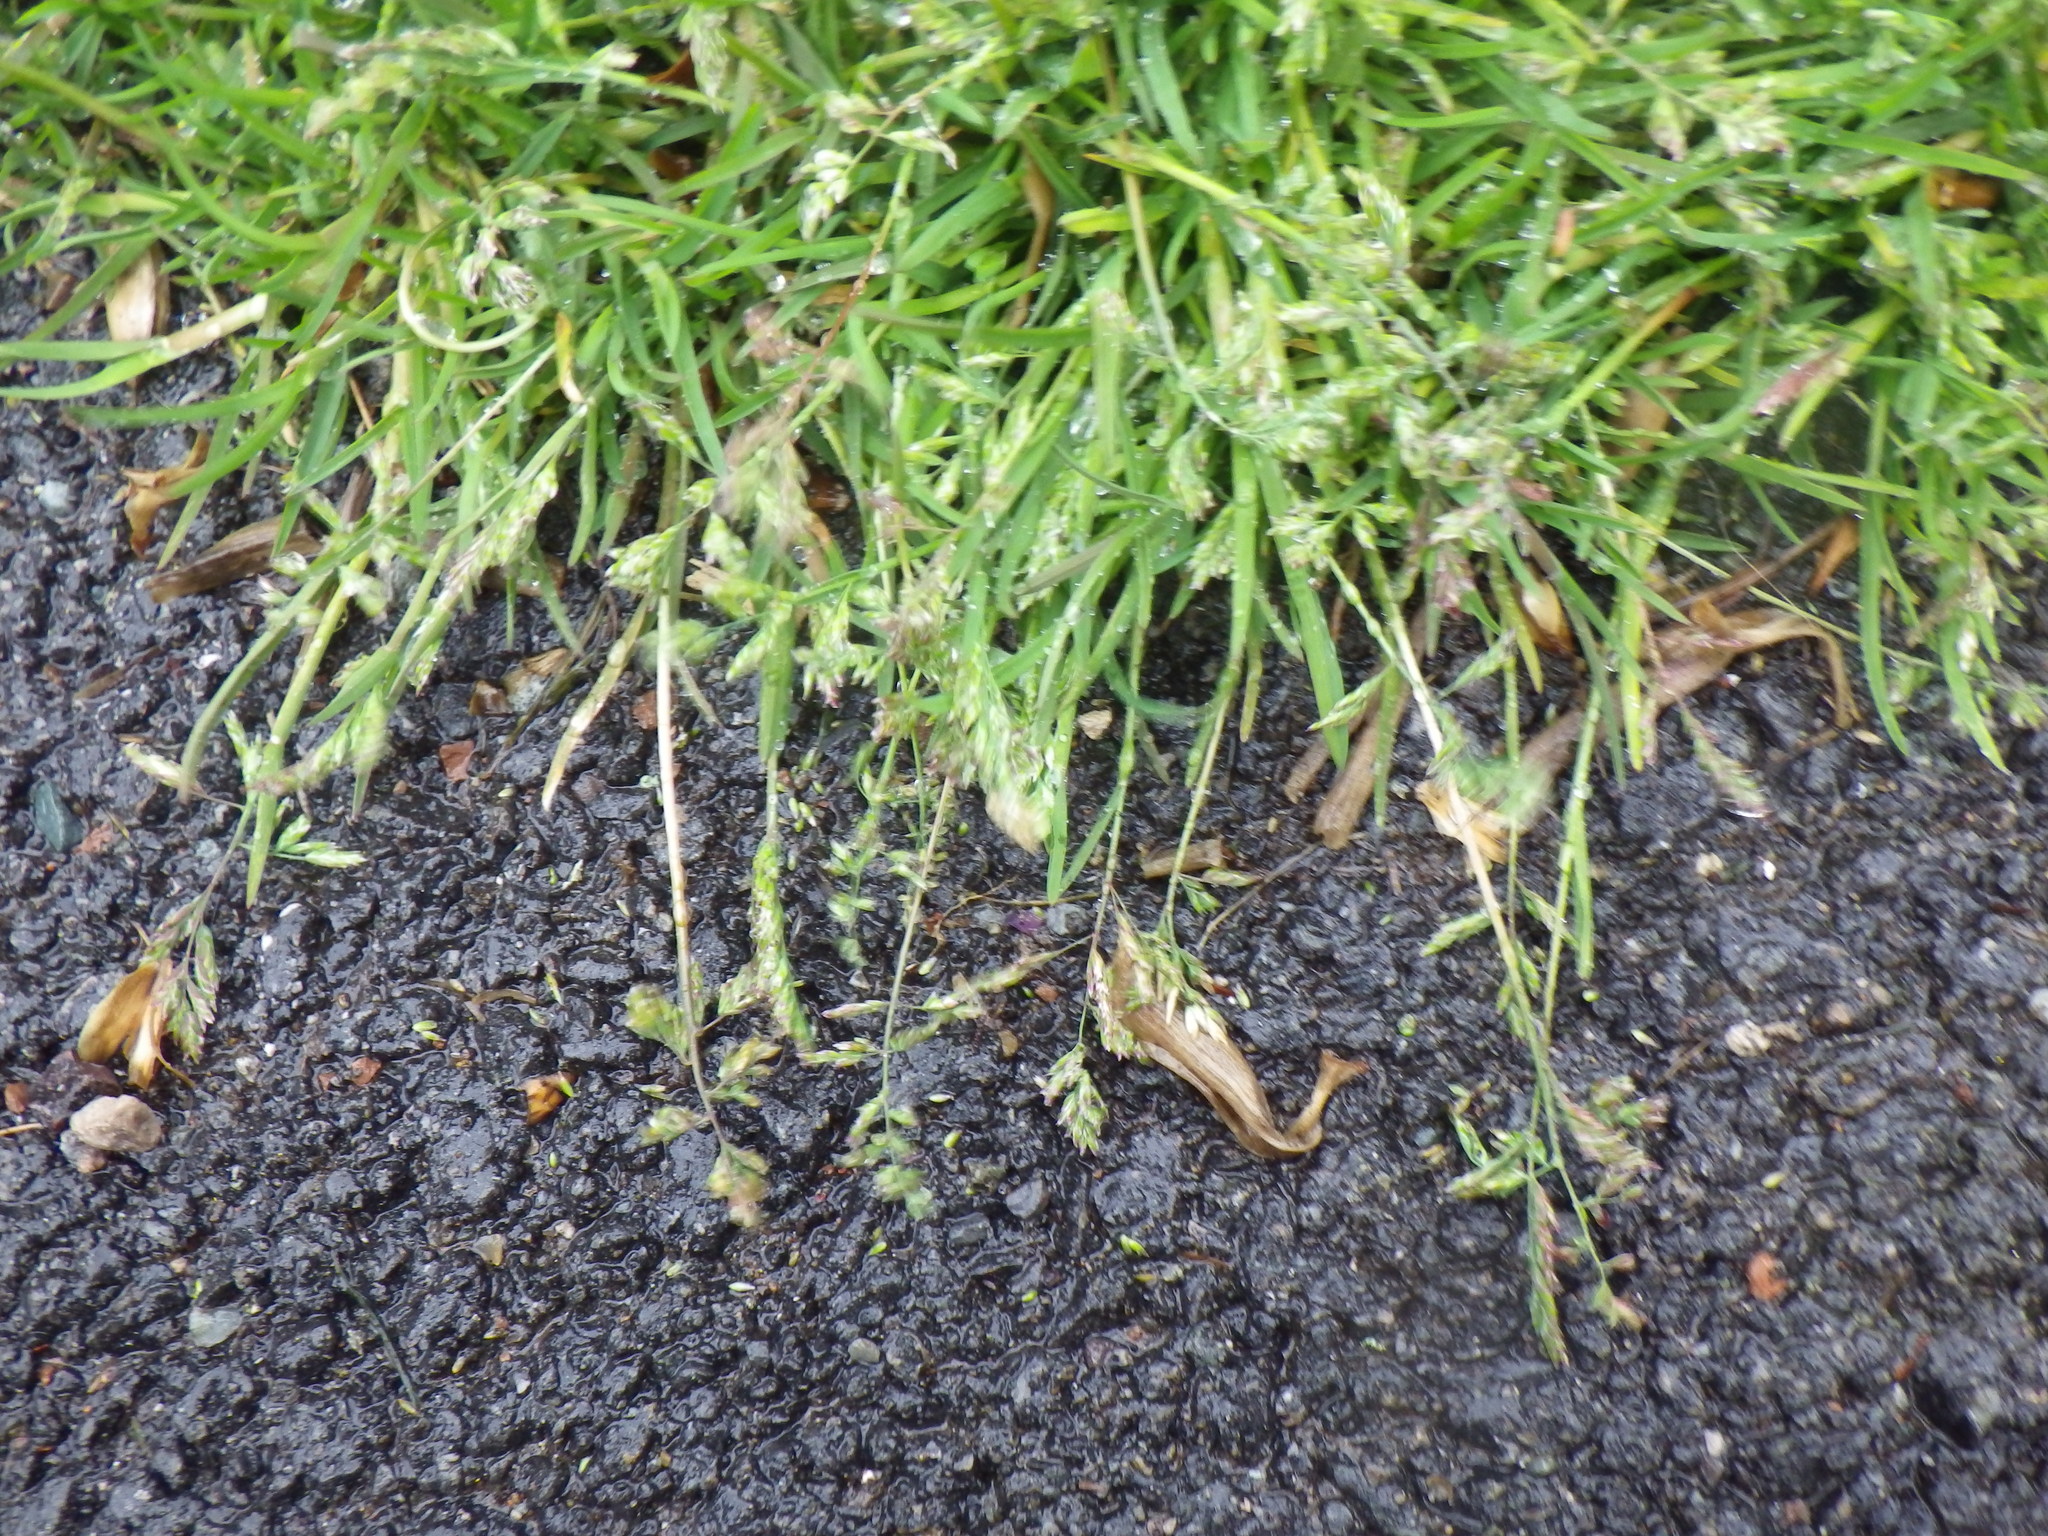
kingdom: Plantae
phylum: Tracheophyta
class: Liliopsida
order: Poales
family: Poaceae
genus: Poa
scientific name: Poa annua
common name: Annual bluegrass
